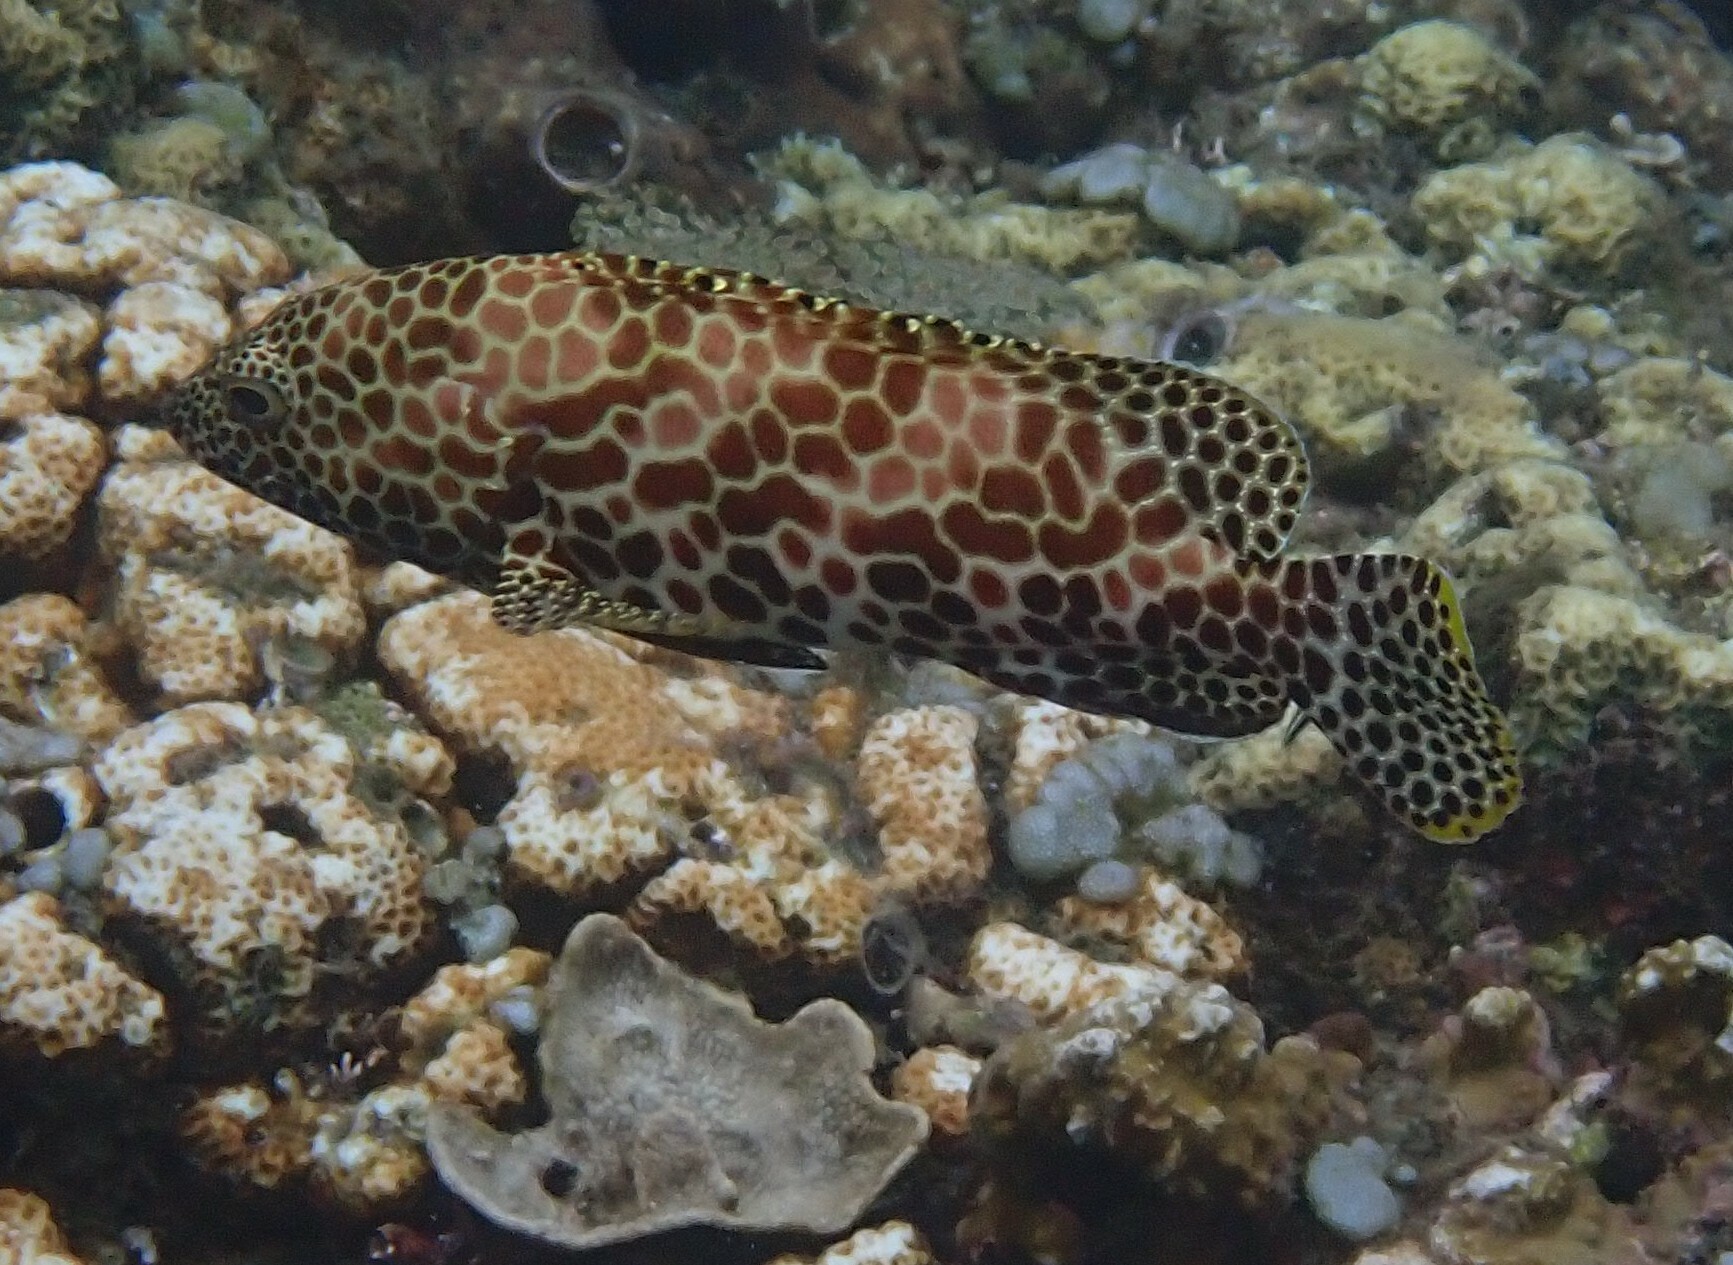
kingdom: Animalia
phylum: Chordata
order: Perciformes
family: Serranidae
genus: Epinephelus
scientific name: Epinephelus merra
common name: Honeycomb grouper
